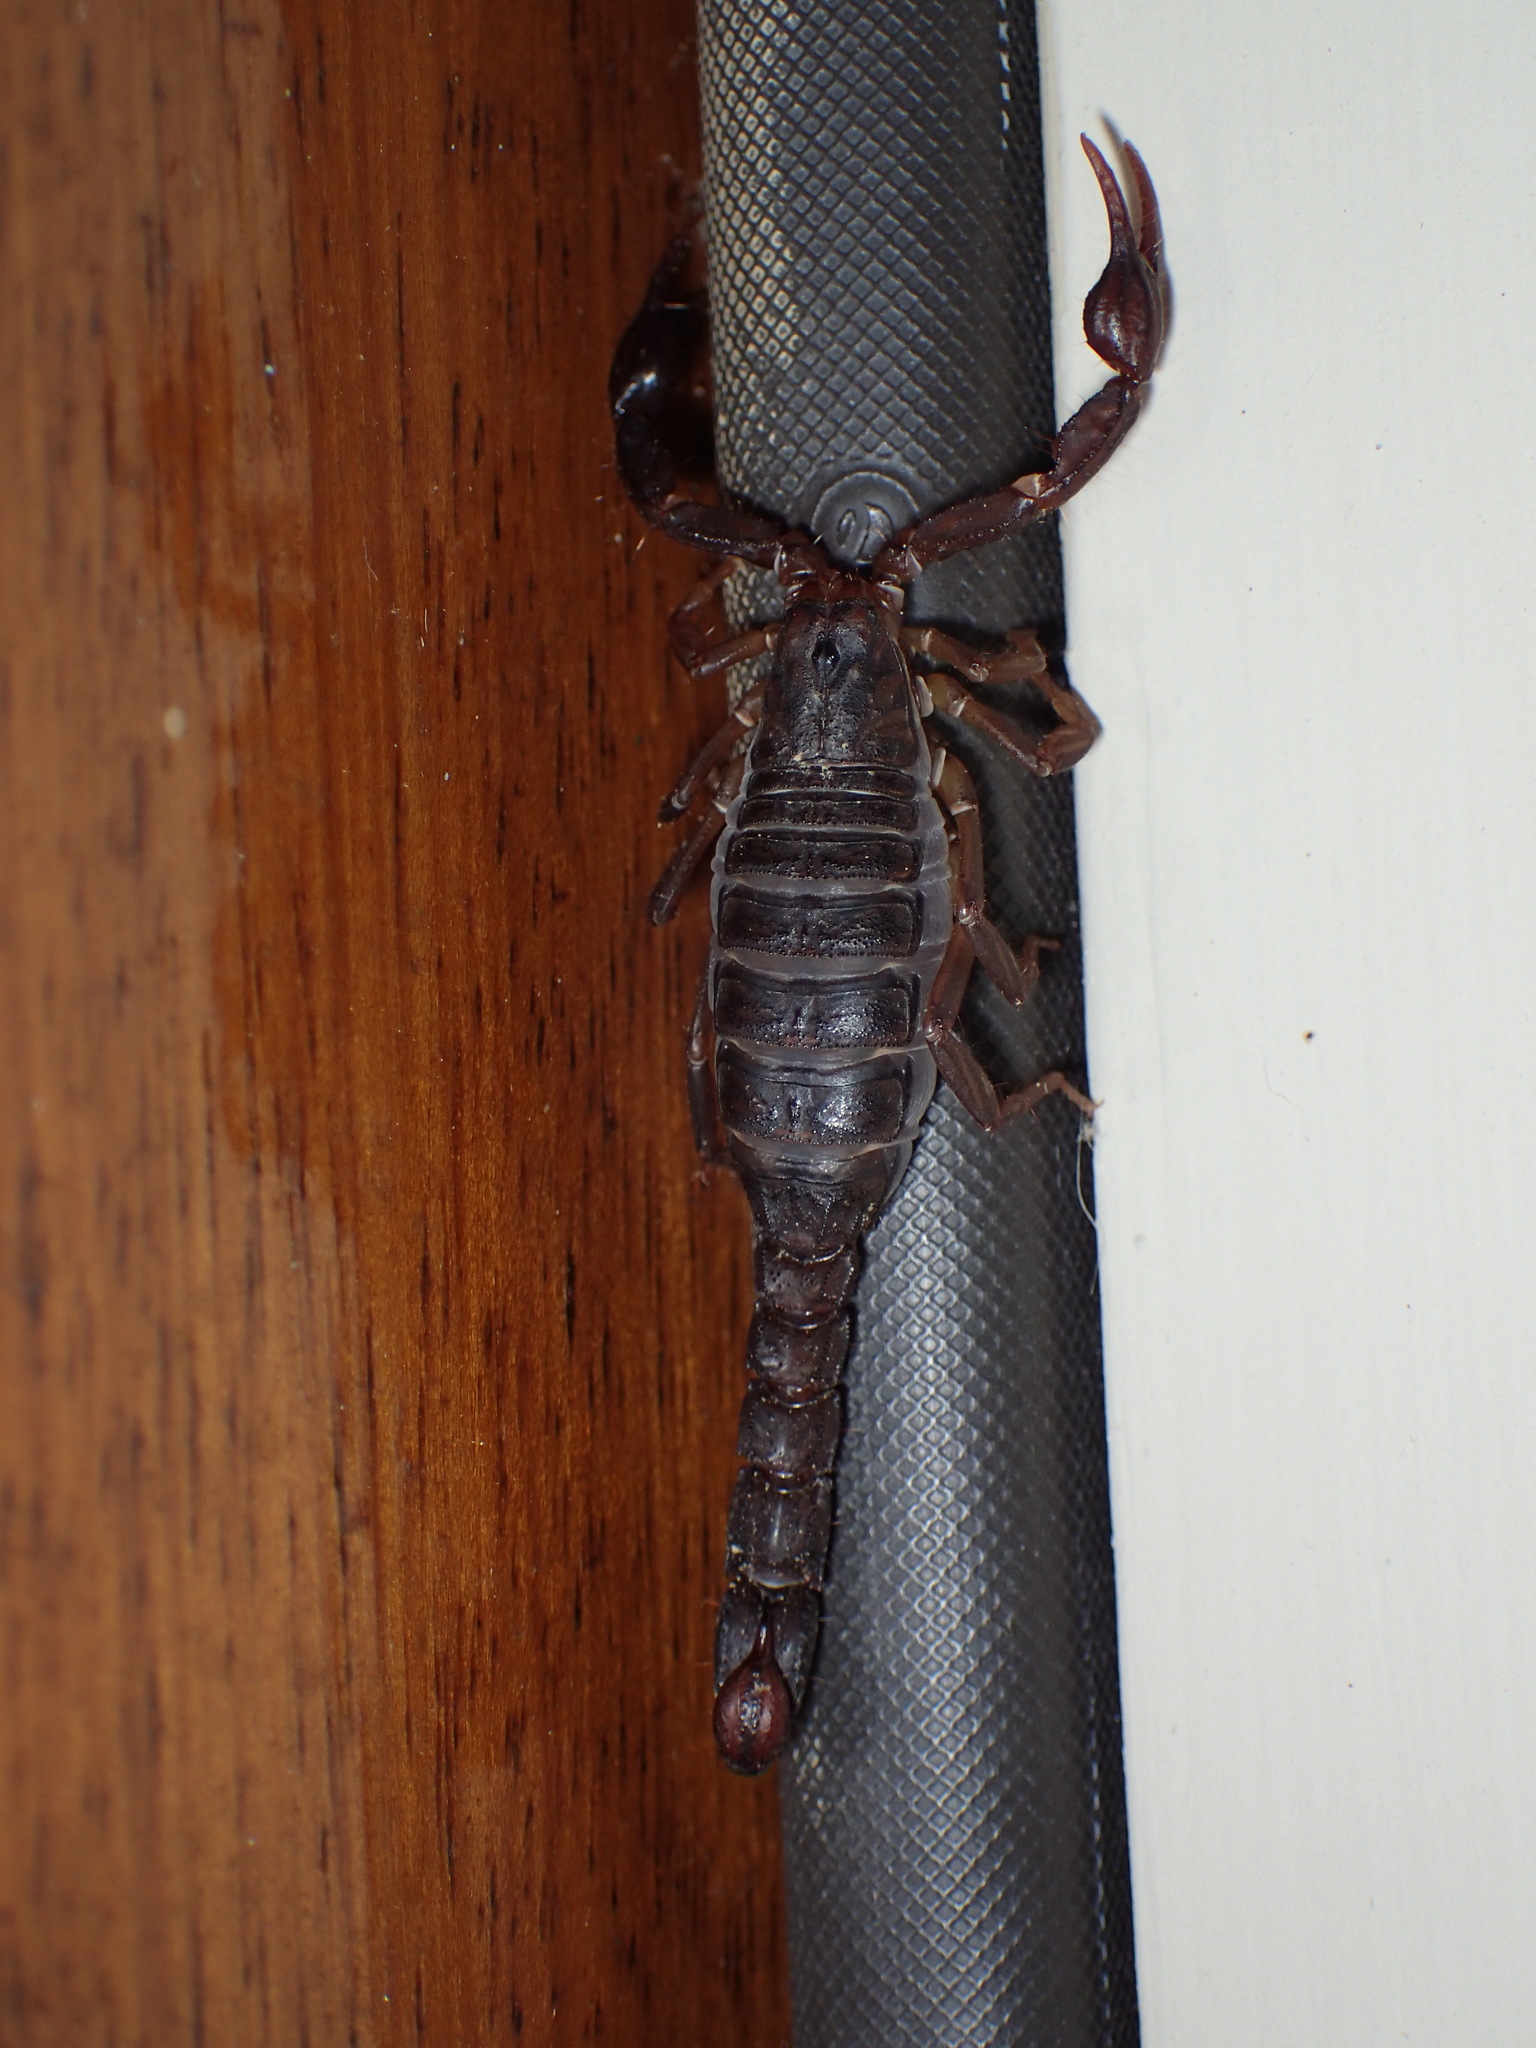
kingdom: Animalia
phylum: Arthropoda
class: Arachnida
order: Scorpiones
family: Vaejovidae
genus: Vaejovis
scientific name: Vaejovis carolinianus
